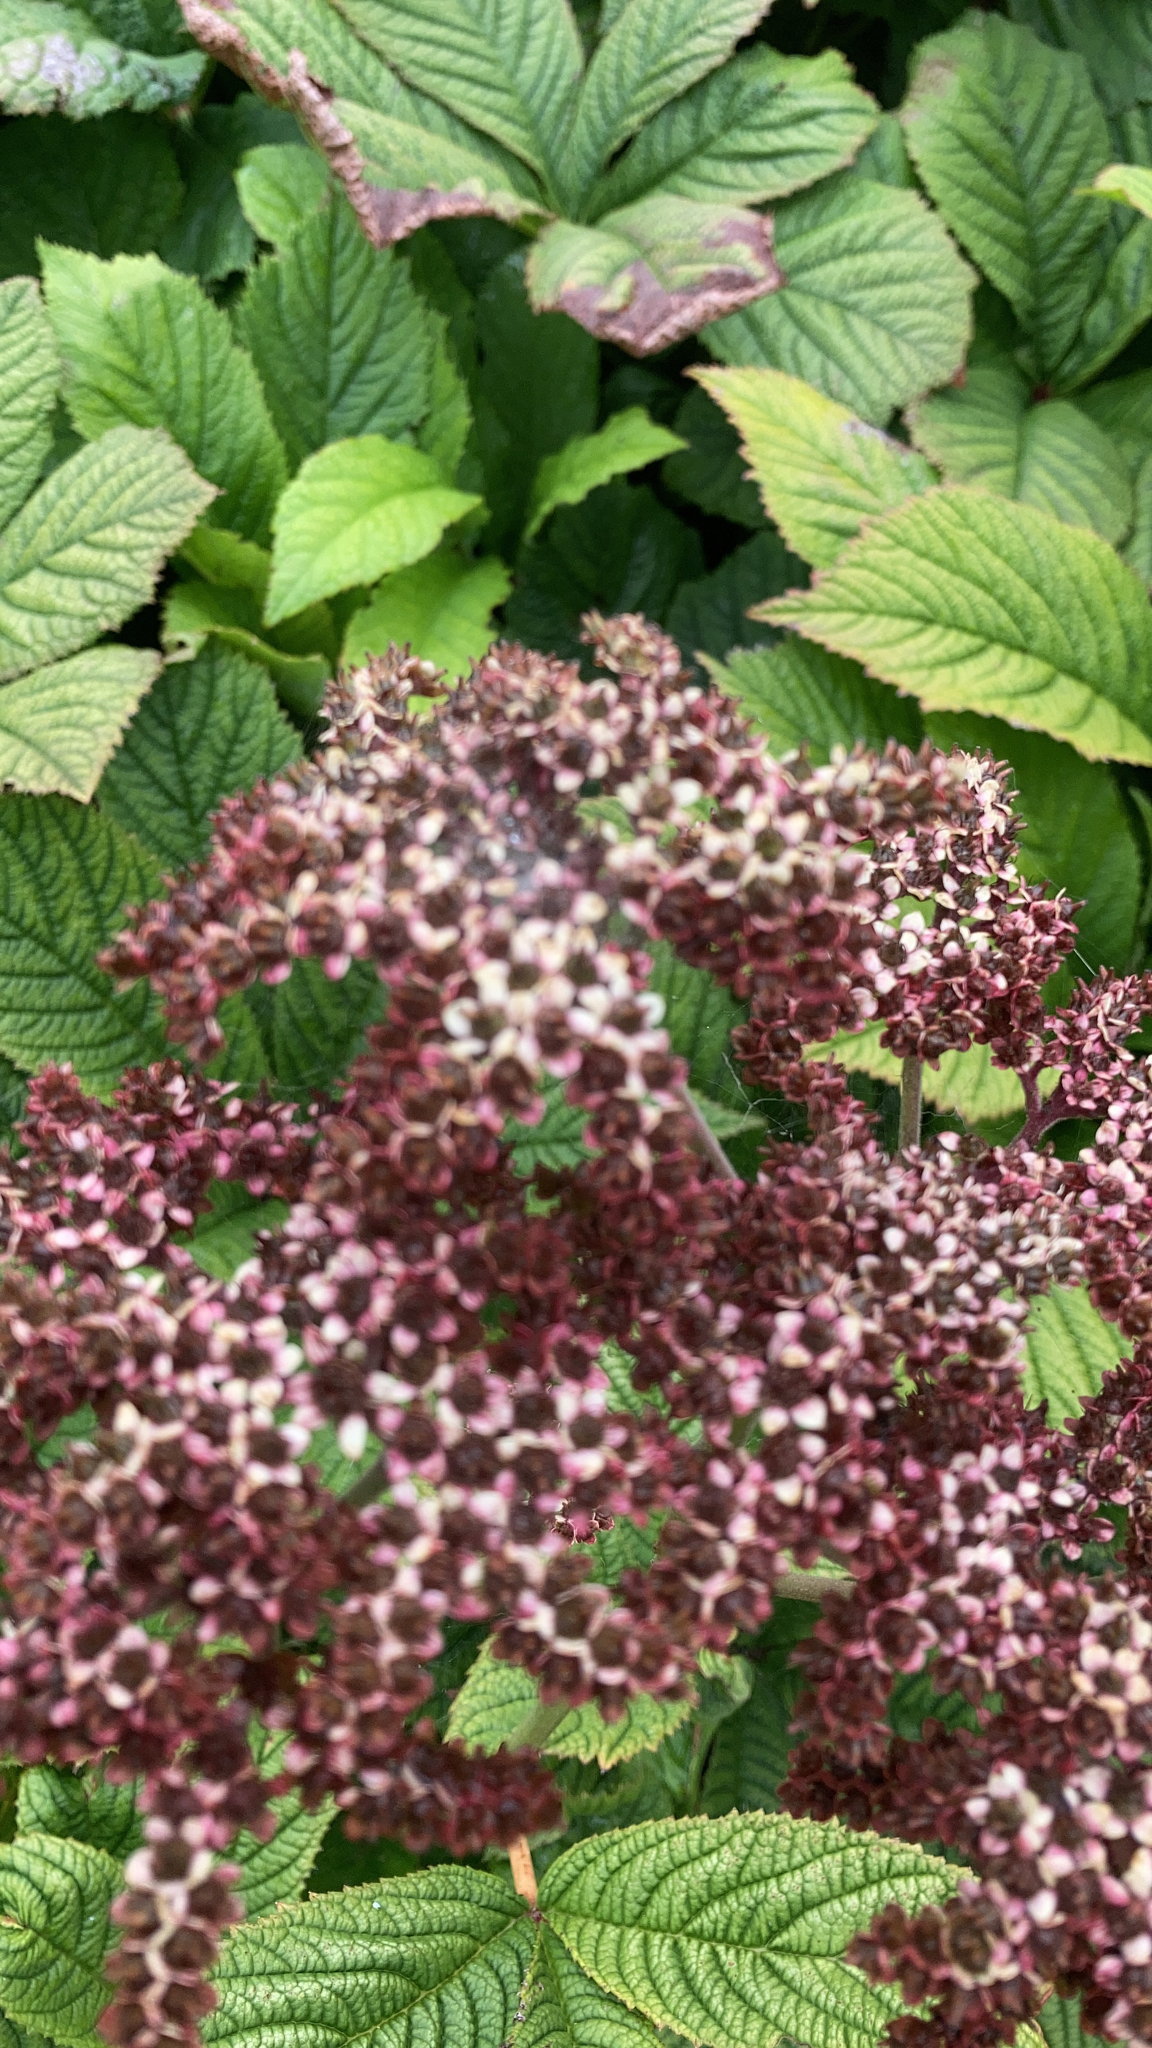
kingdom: Plantae
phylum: Tracheophyta
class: Magnoliopsida
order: Rosales
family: Rosaceae
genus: Spiraea
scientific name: Spiraea japonica
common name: Japanese spiraea
